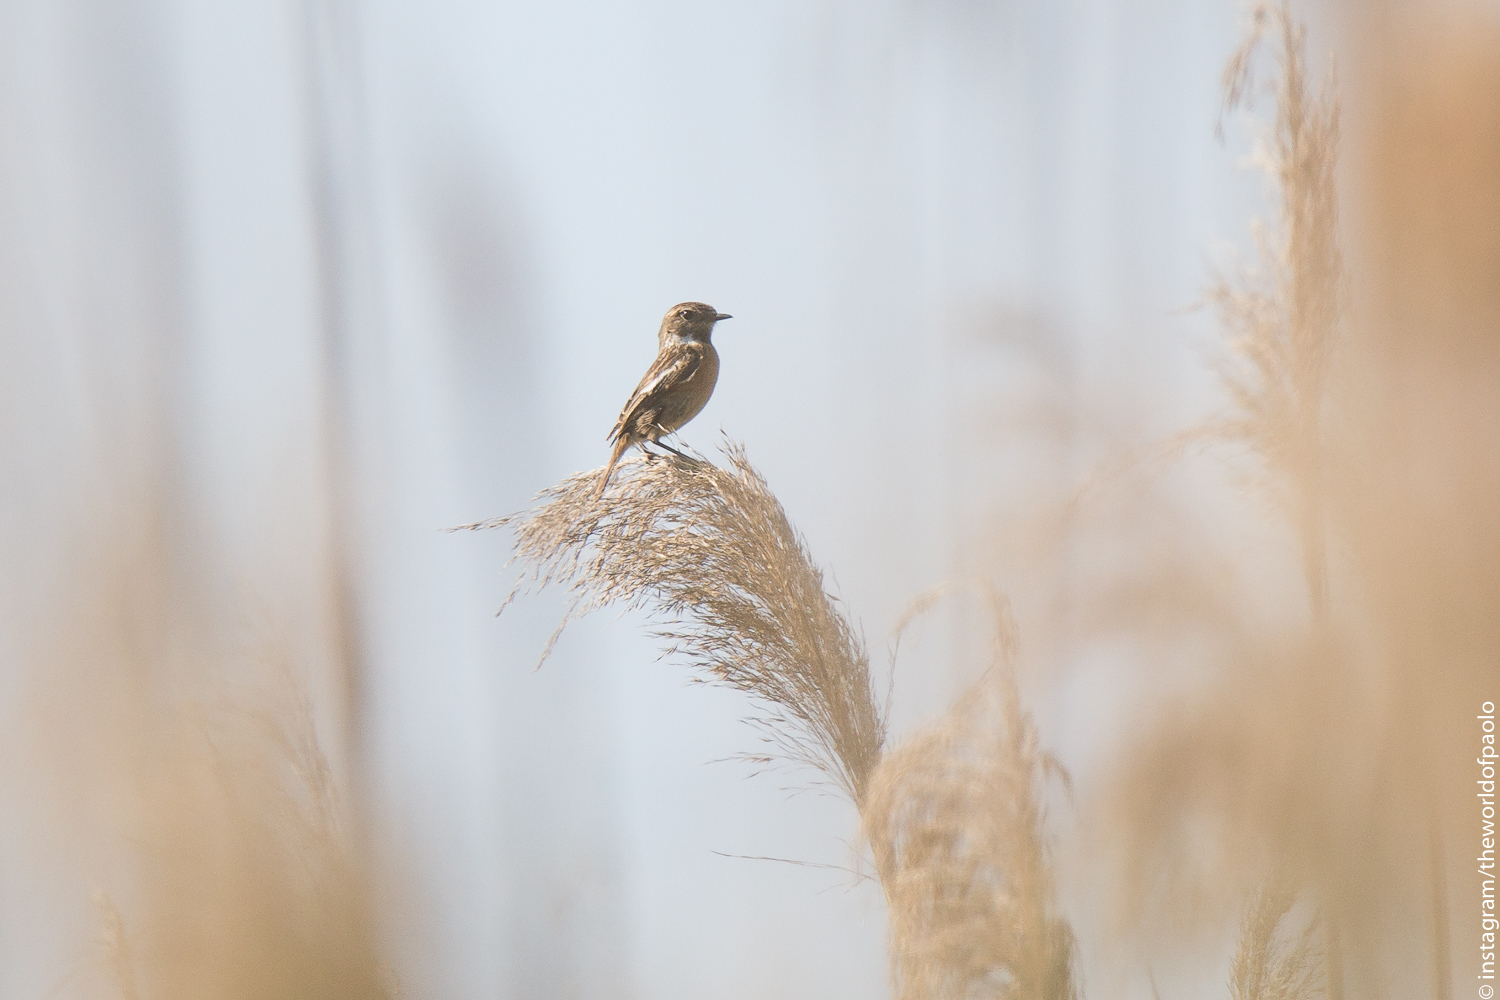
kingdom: Animalia
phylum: Chordata
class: Aves
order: Passeriformes
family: Muscicapidae
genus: Saxicola
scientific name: Saxicola rubicola
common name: European stonechat
